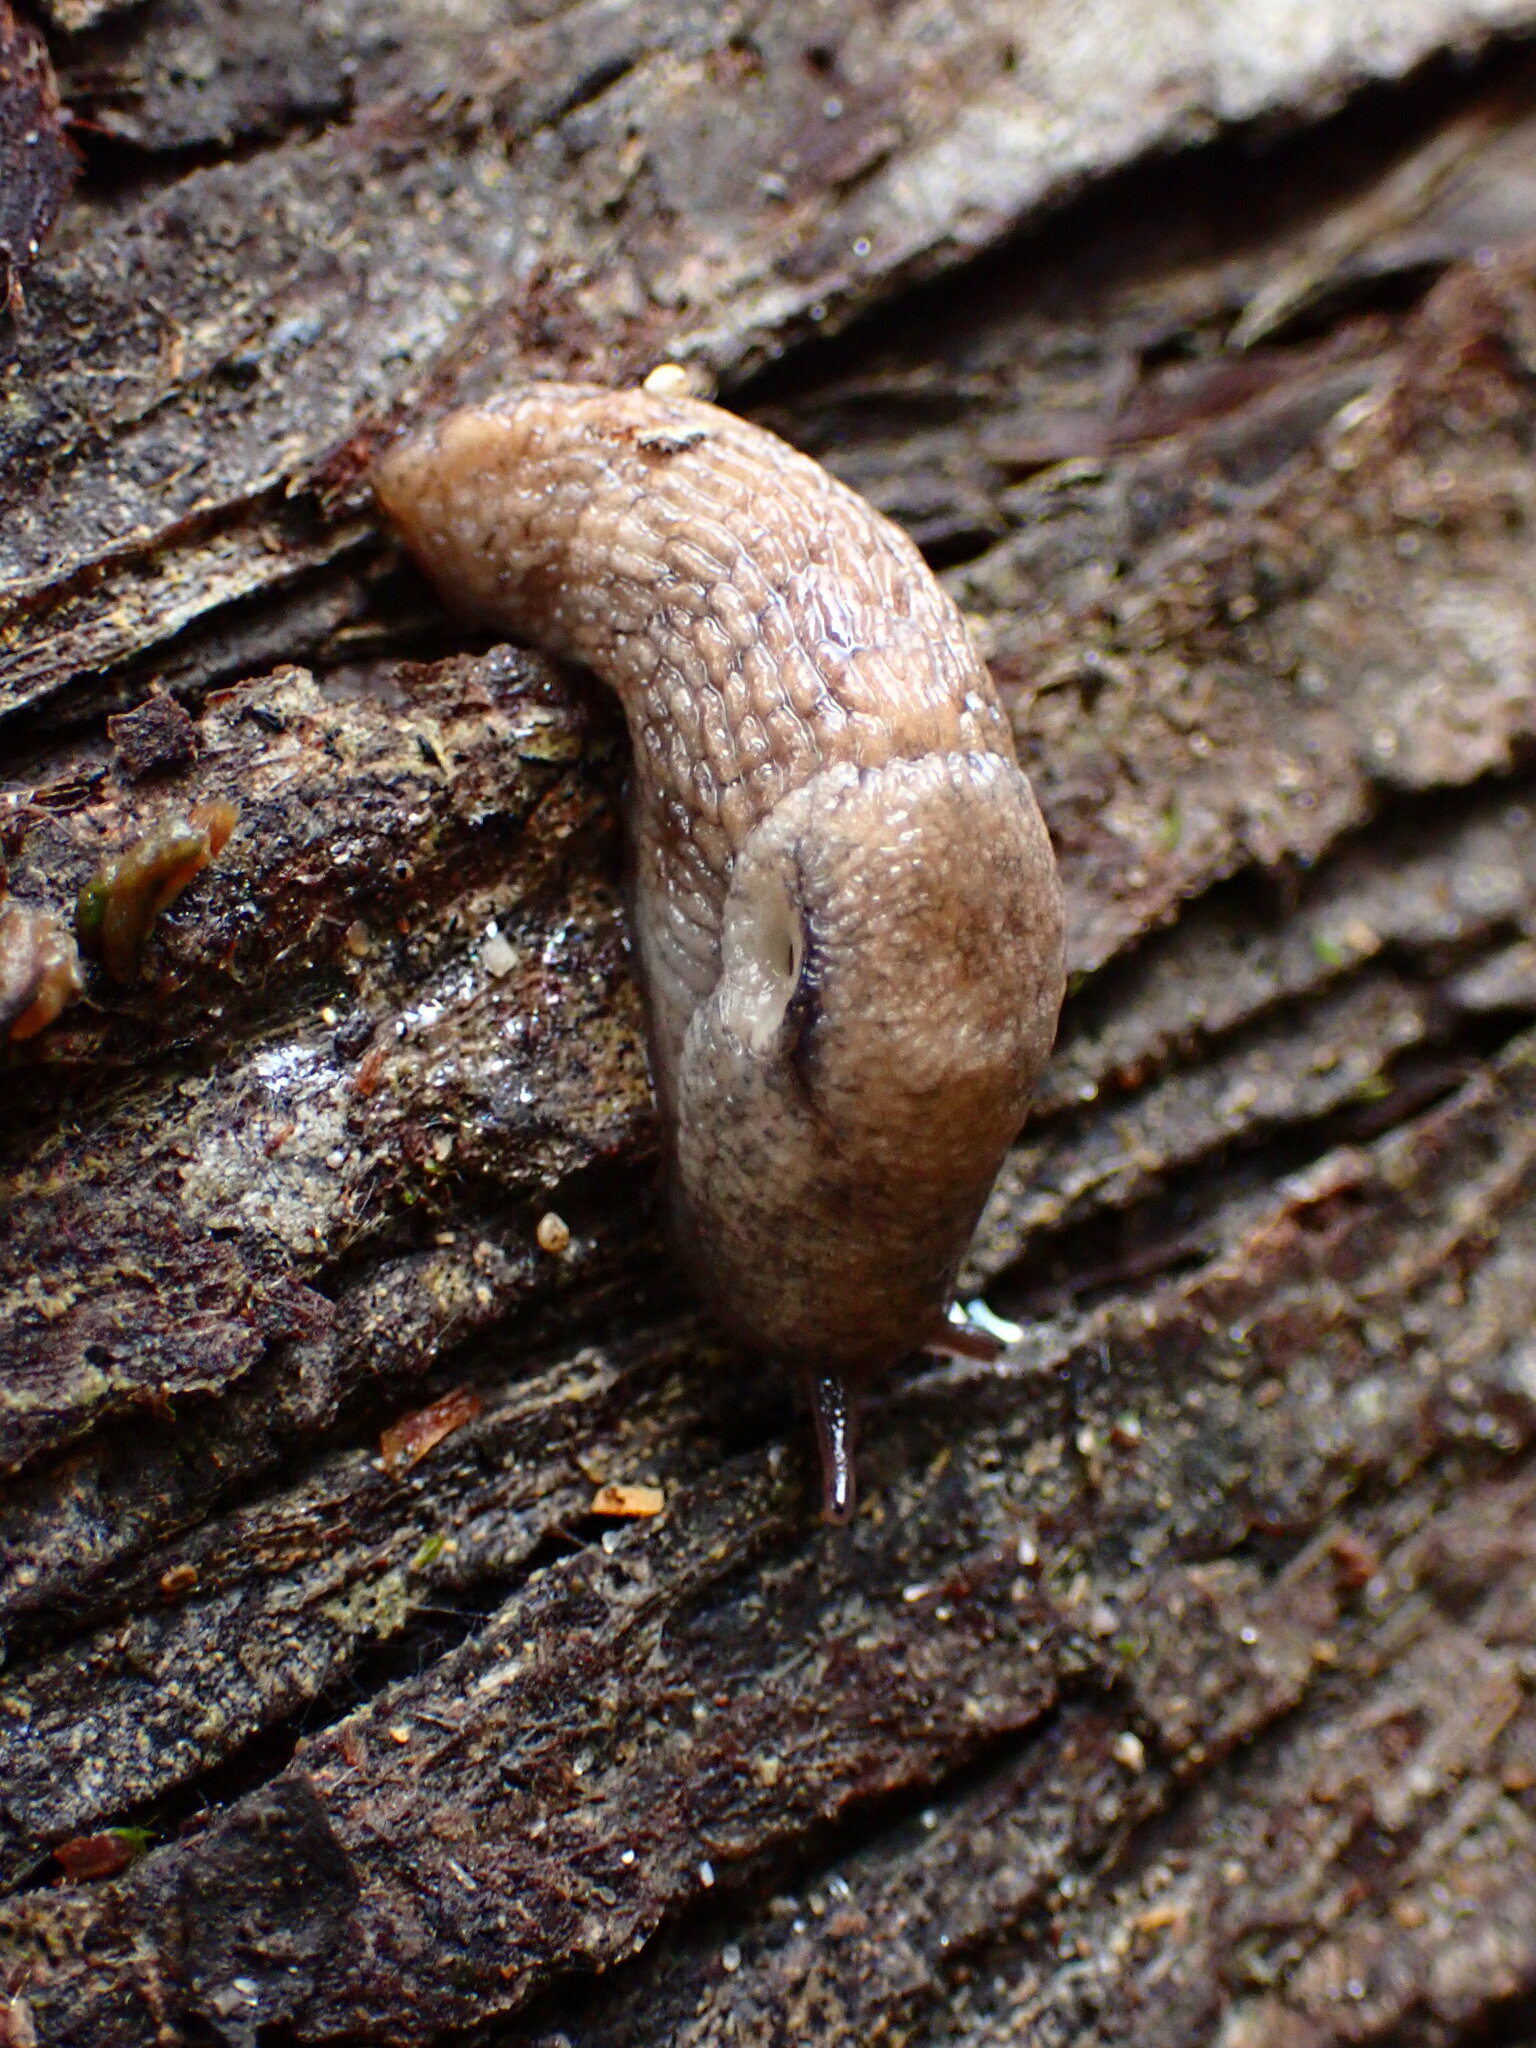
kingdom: Animalia
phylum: Mollusca
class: Gastropoda
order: Stylommatophora
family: Agriolimacidae
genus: Deroceras
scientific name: Deroceras reticulatum
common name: Gray field slug
